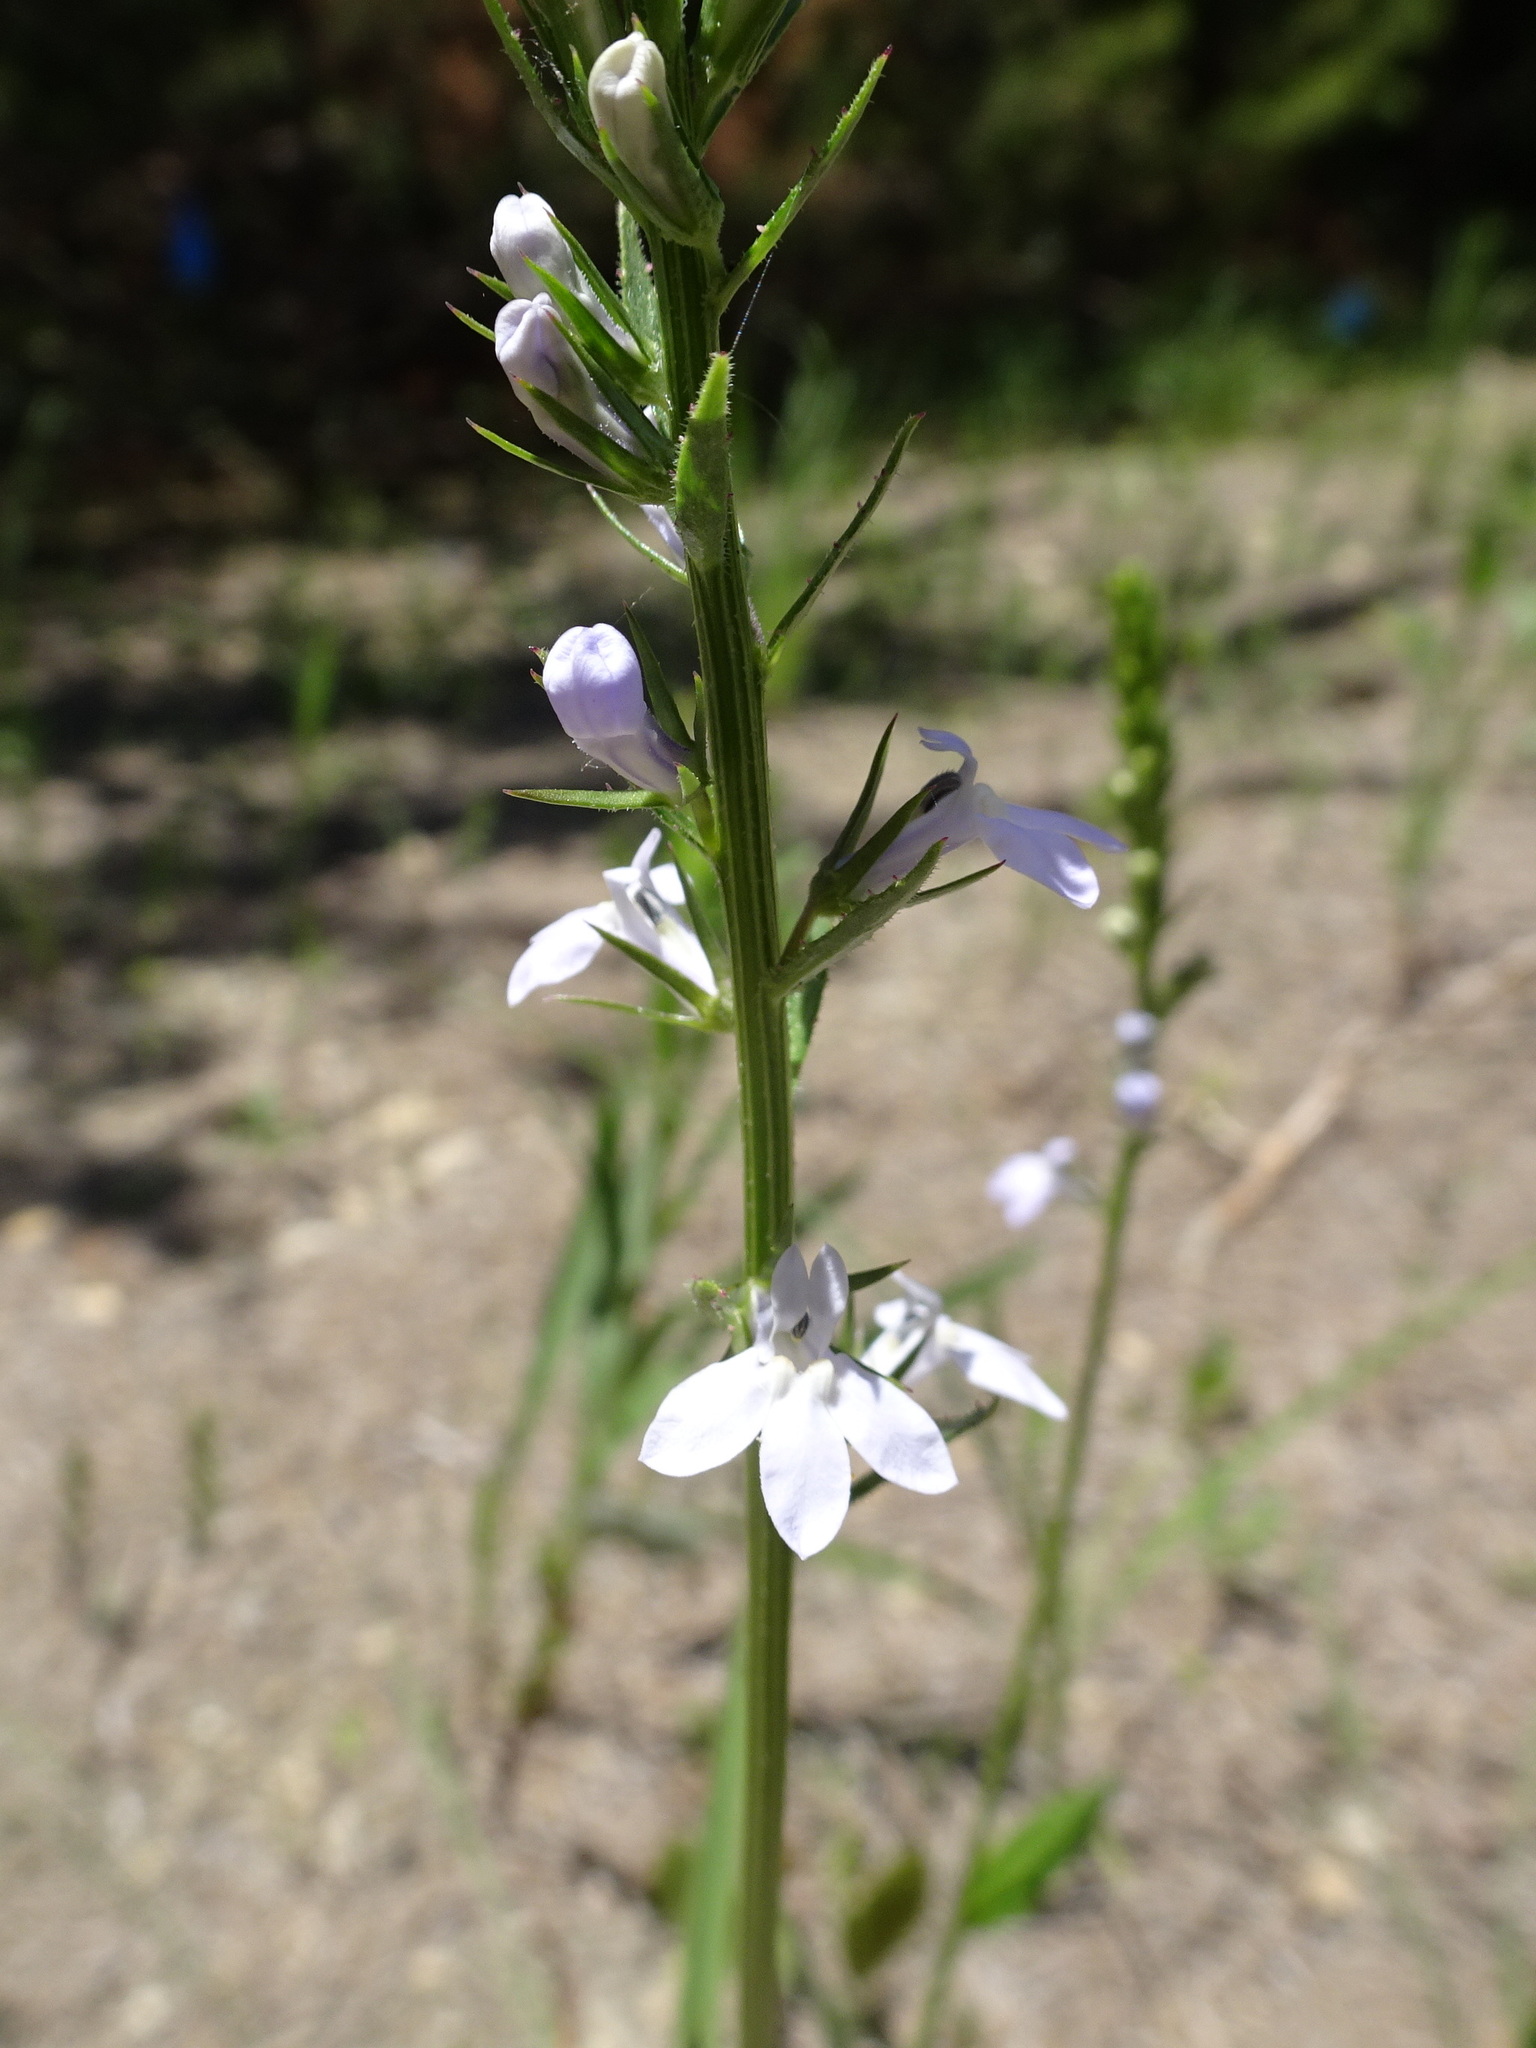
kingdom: Plantae
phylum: Tracheophyta
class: Magnoliopsida
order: Asterales
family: Campanulaceae
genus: Lobelia
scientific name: Lobelia spicata
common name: Pale-spike lobelia
